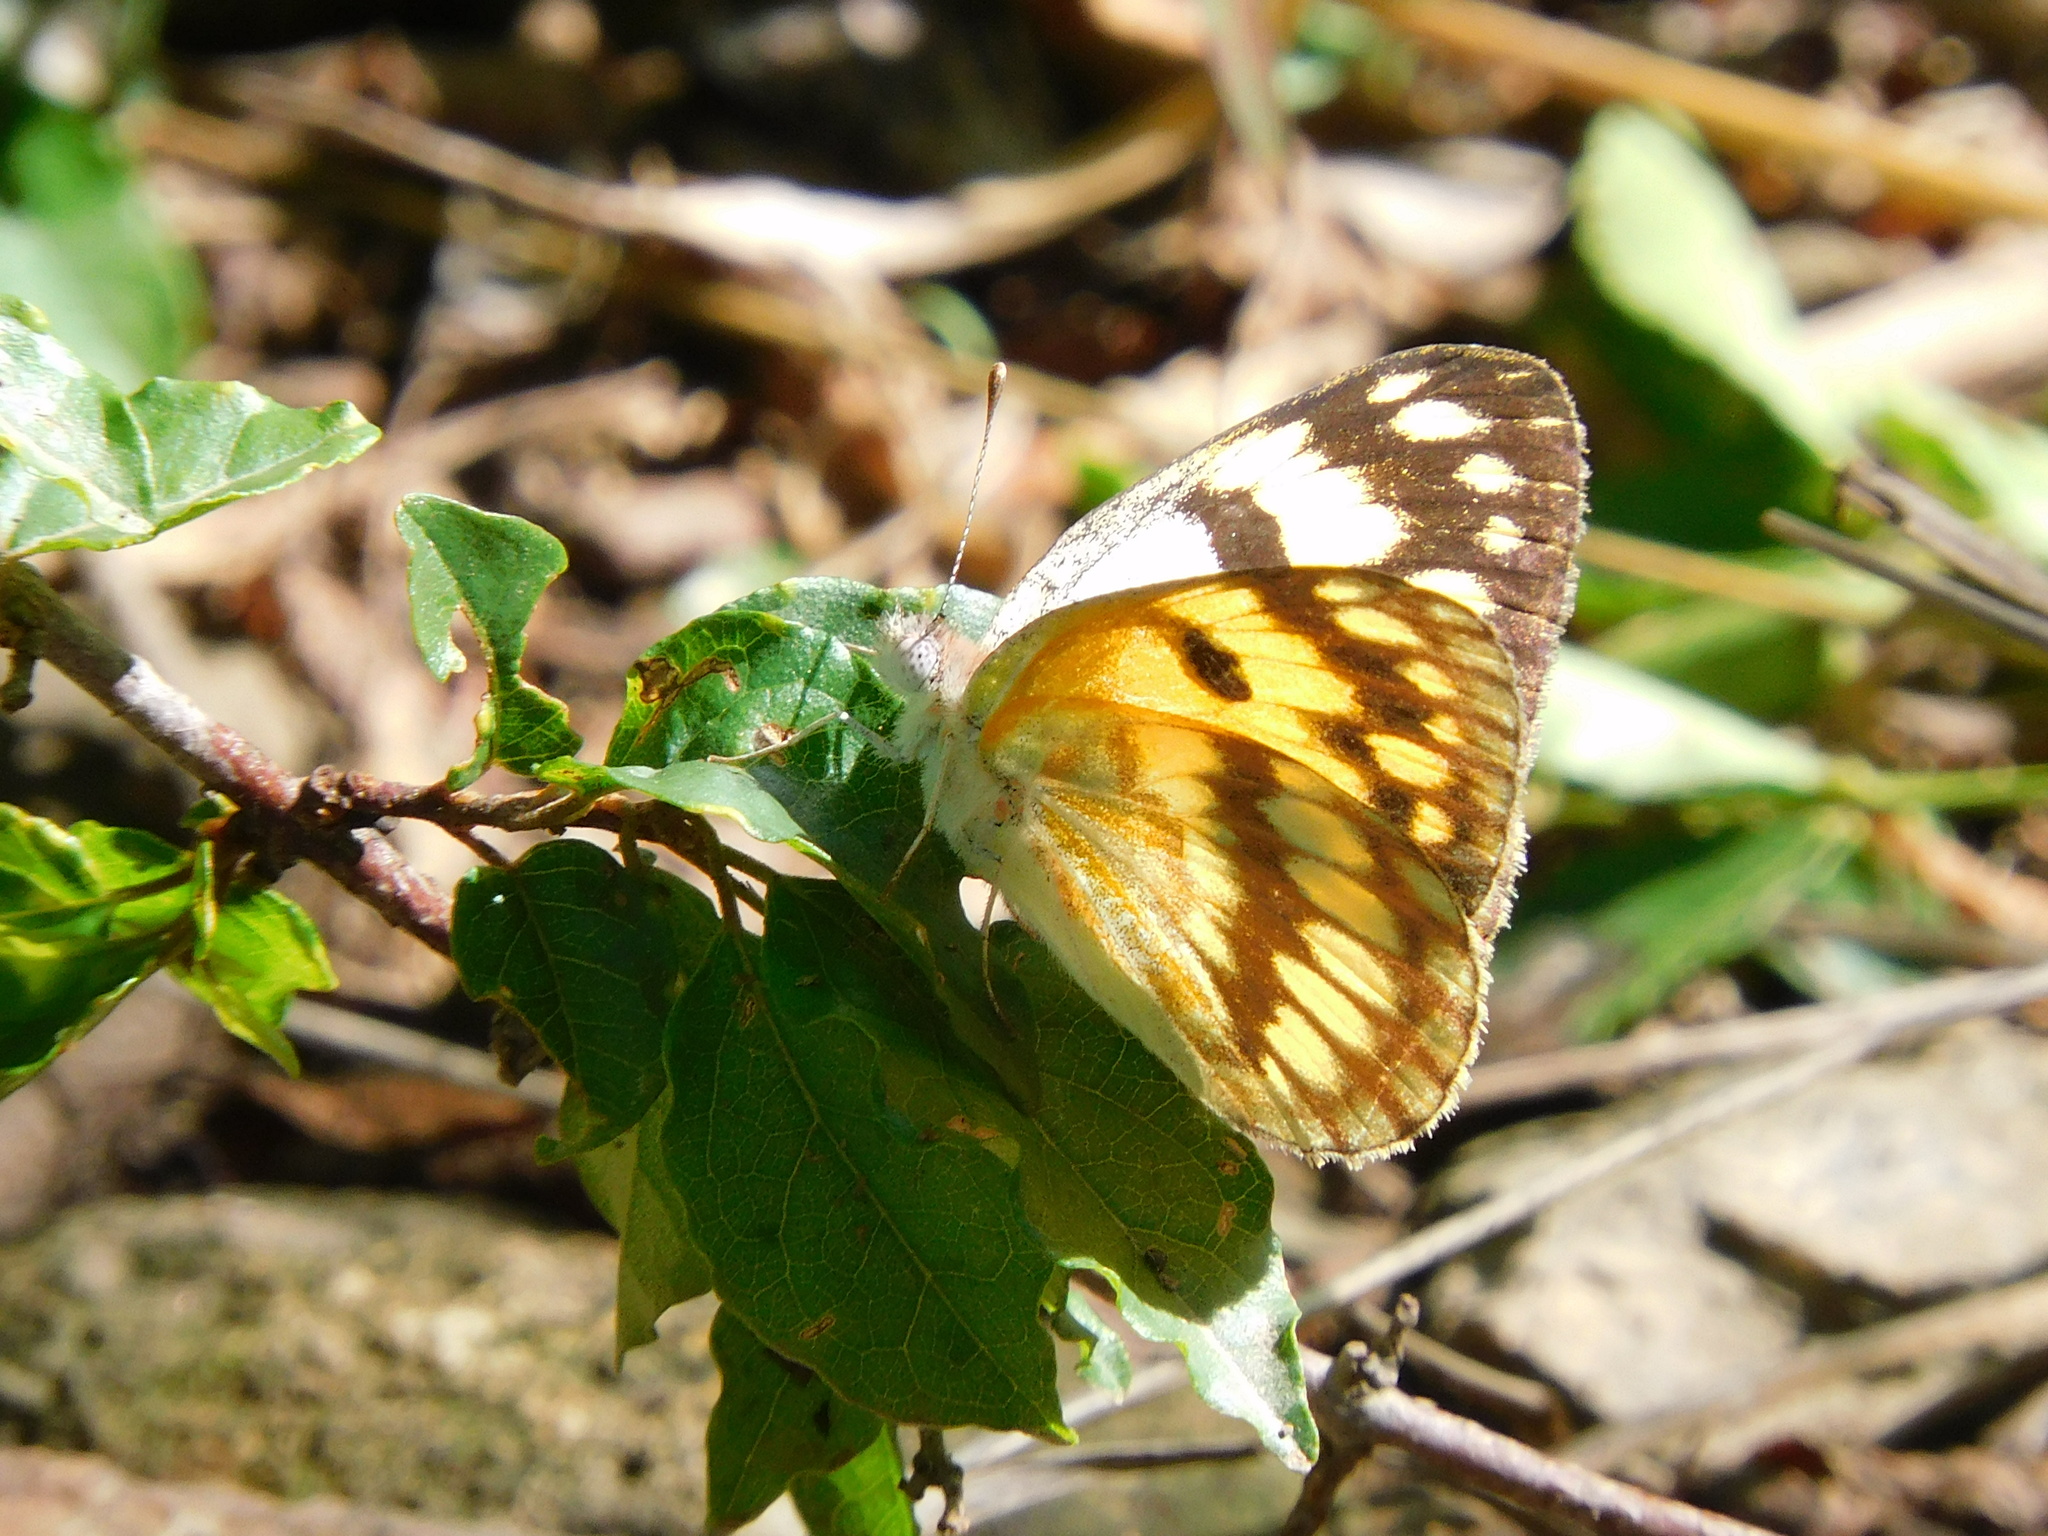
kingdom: Animalia
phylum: Arthropoda
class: Insecta
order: Lepidoptera
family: Pieridae
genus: Colotis
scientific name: Colotis vesta
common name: Veined golden arab
